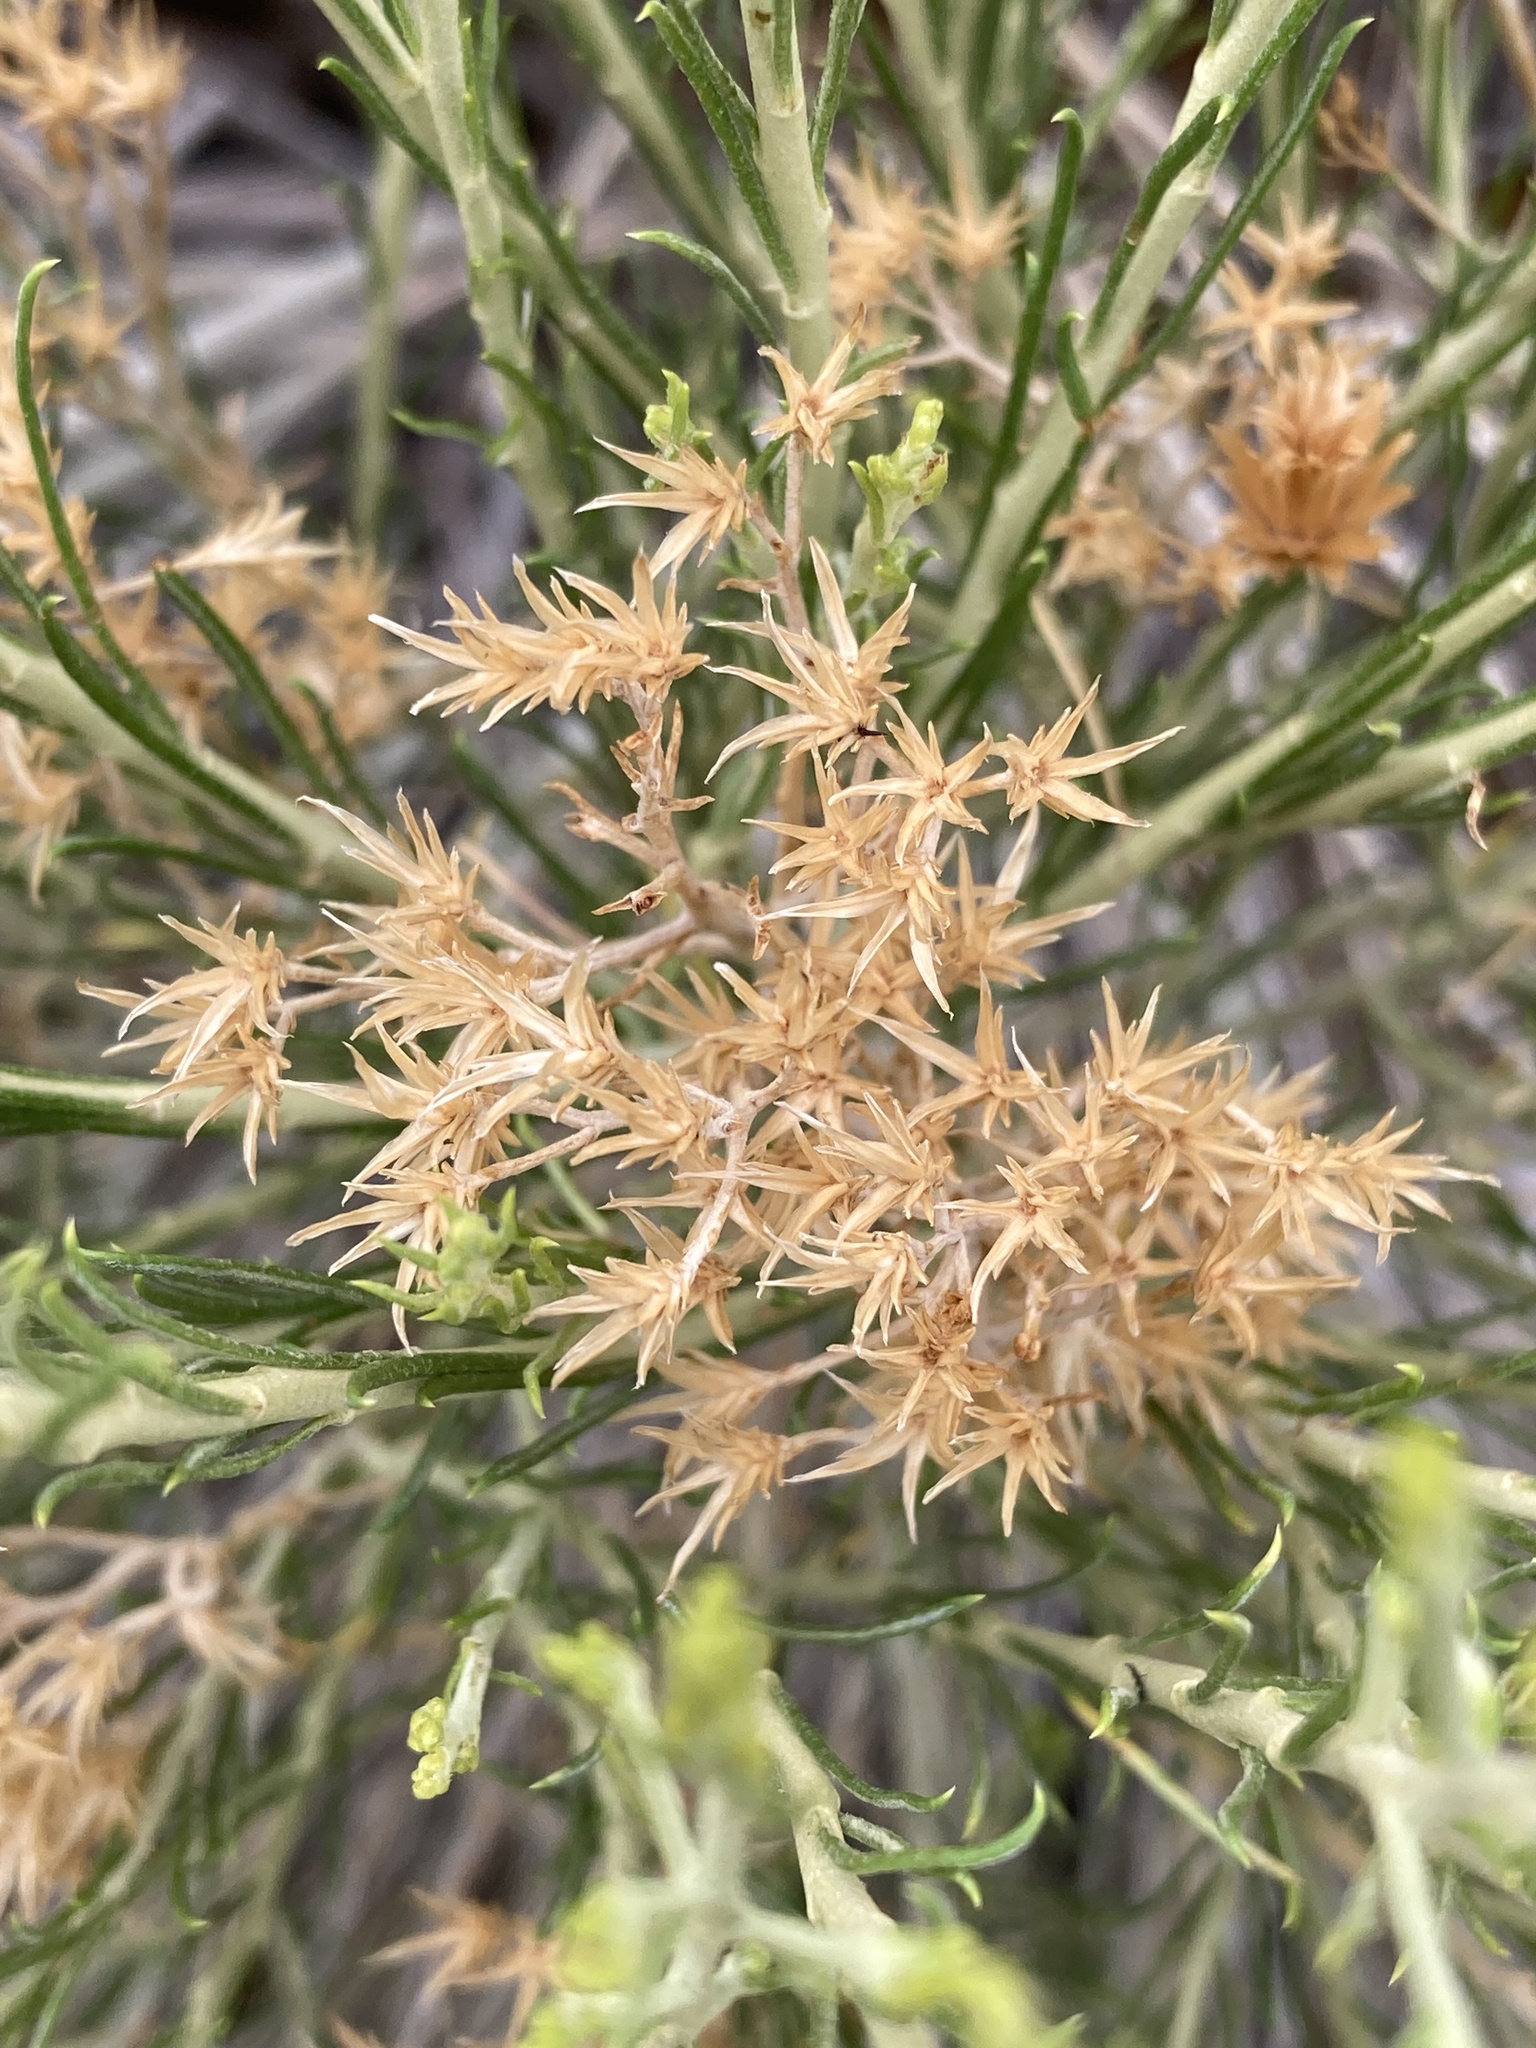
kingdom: Plantae
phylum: Tracheophyta
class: Magnoliopsida
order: Asterales
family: Asteraceae
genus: Ericameria
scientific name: Ericameria nauseosa
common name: Rubber rabbitbrush
